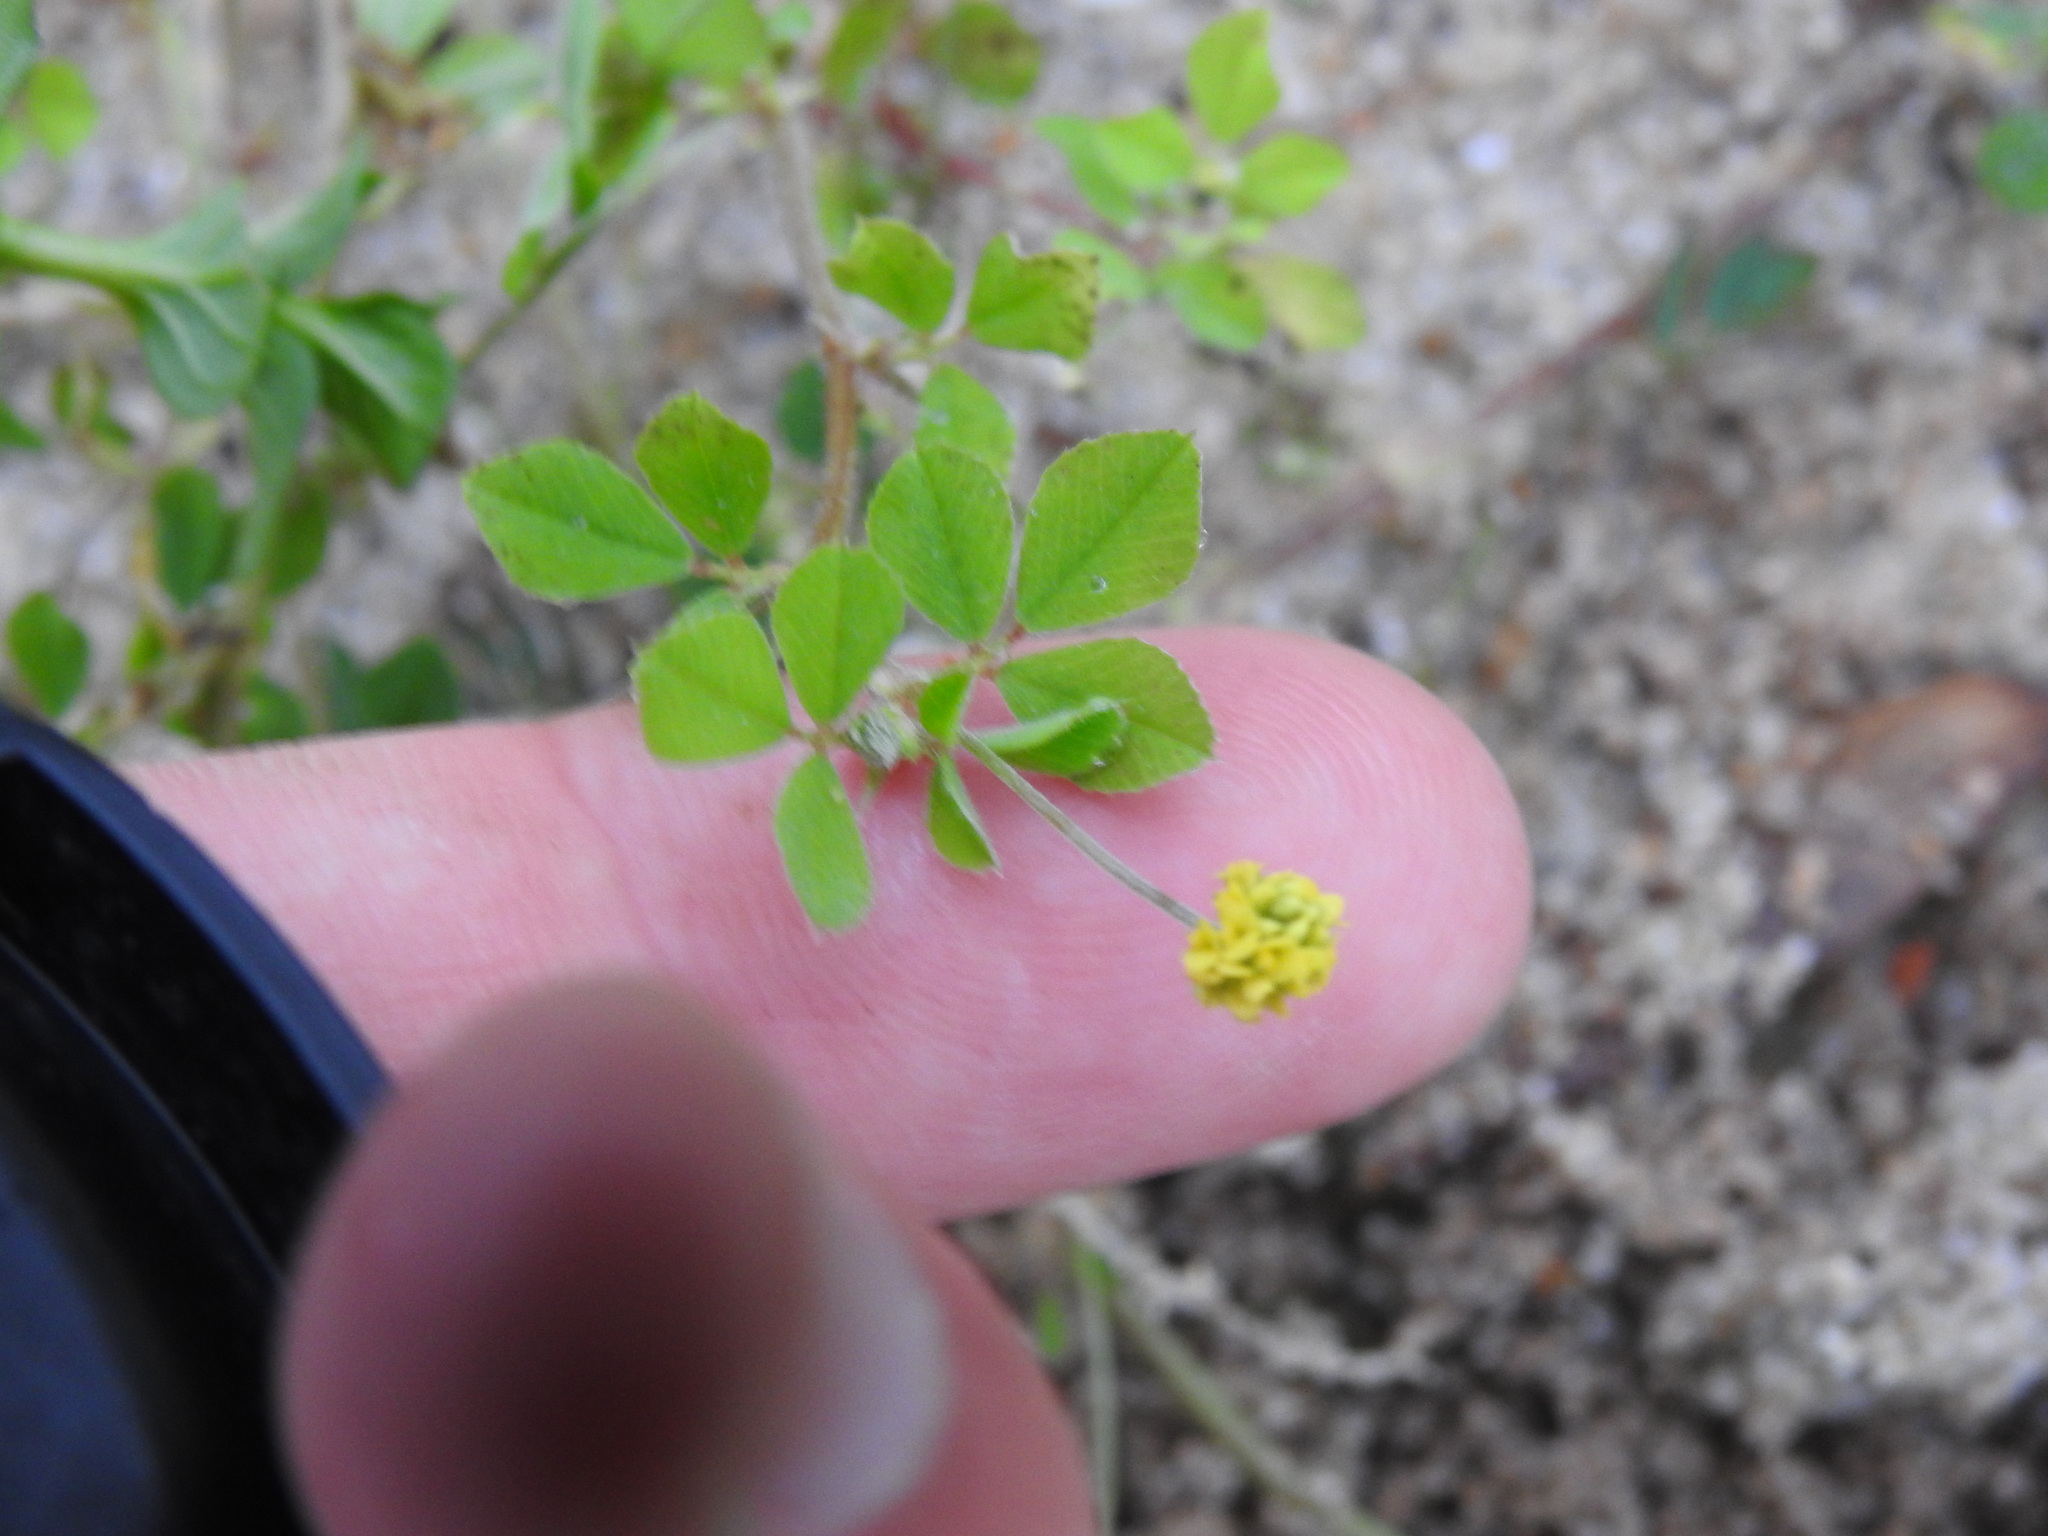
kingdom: Plantae
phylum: Tracheophyta
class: Magnoliopsida
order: Fabales
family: Fabaceae
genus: Medicago
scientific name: Medicago lupulina
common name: Black medick
